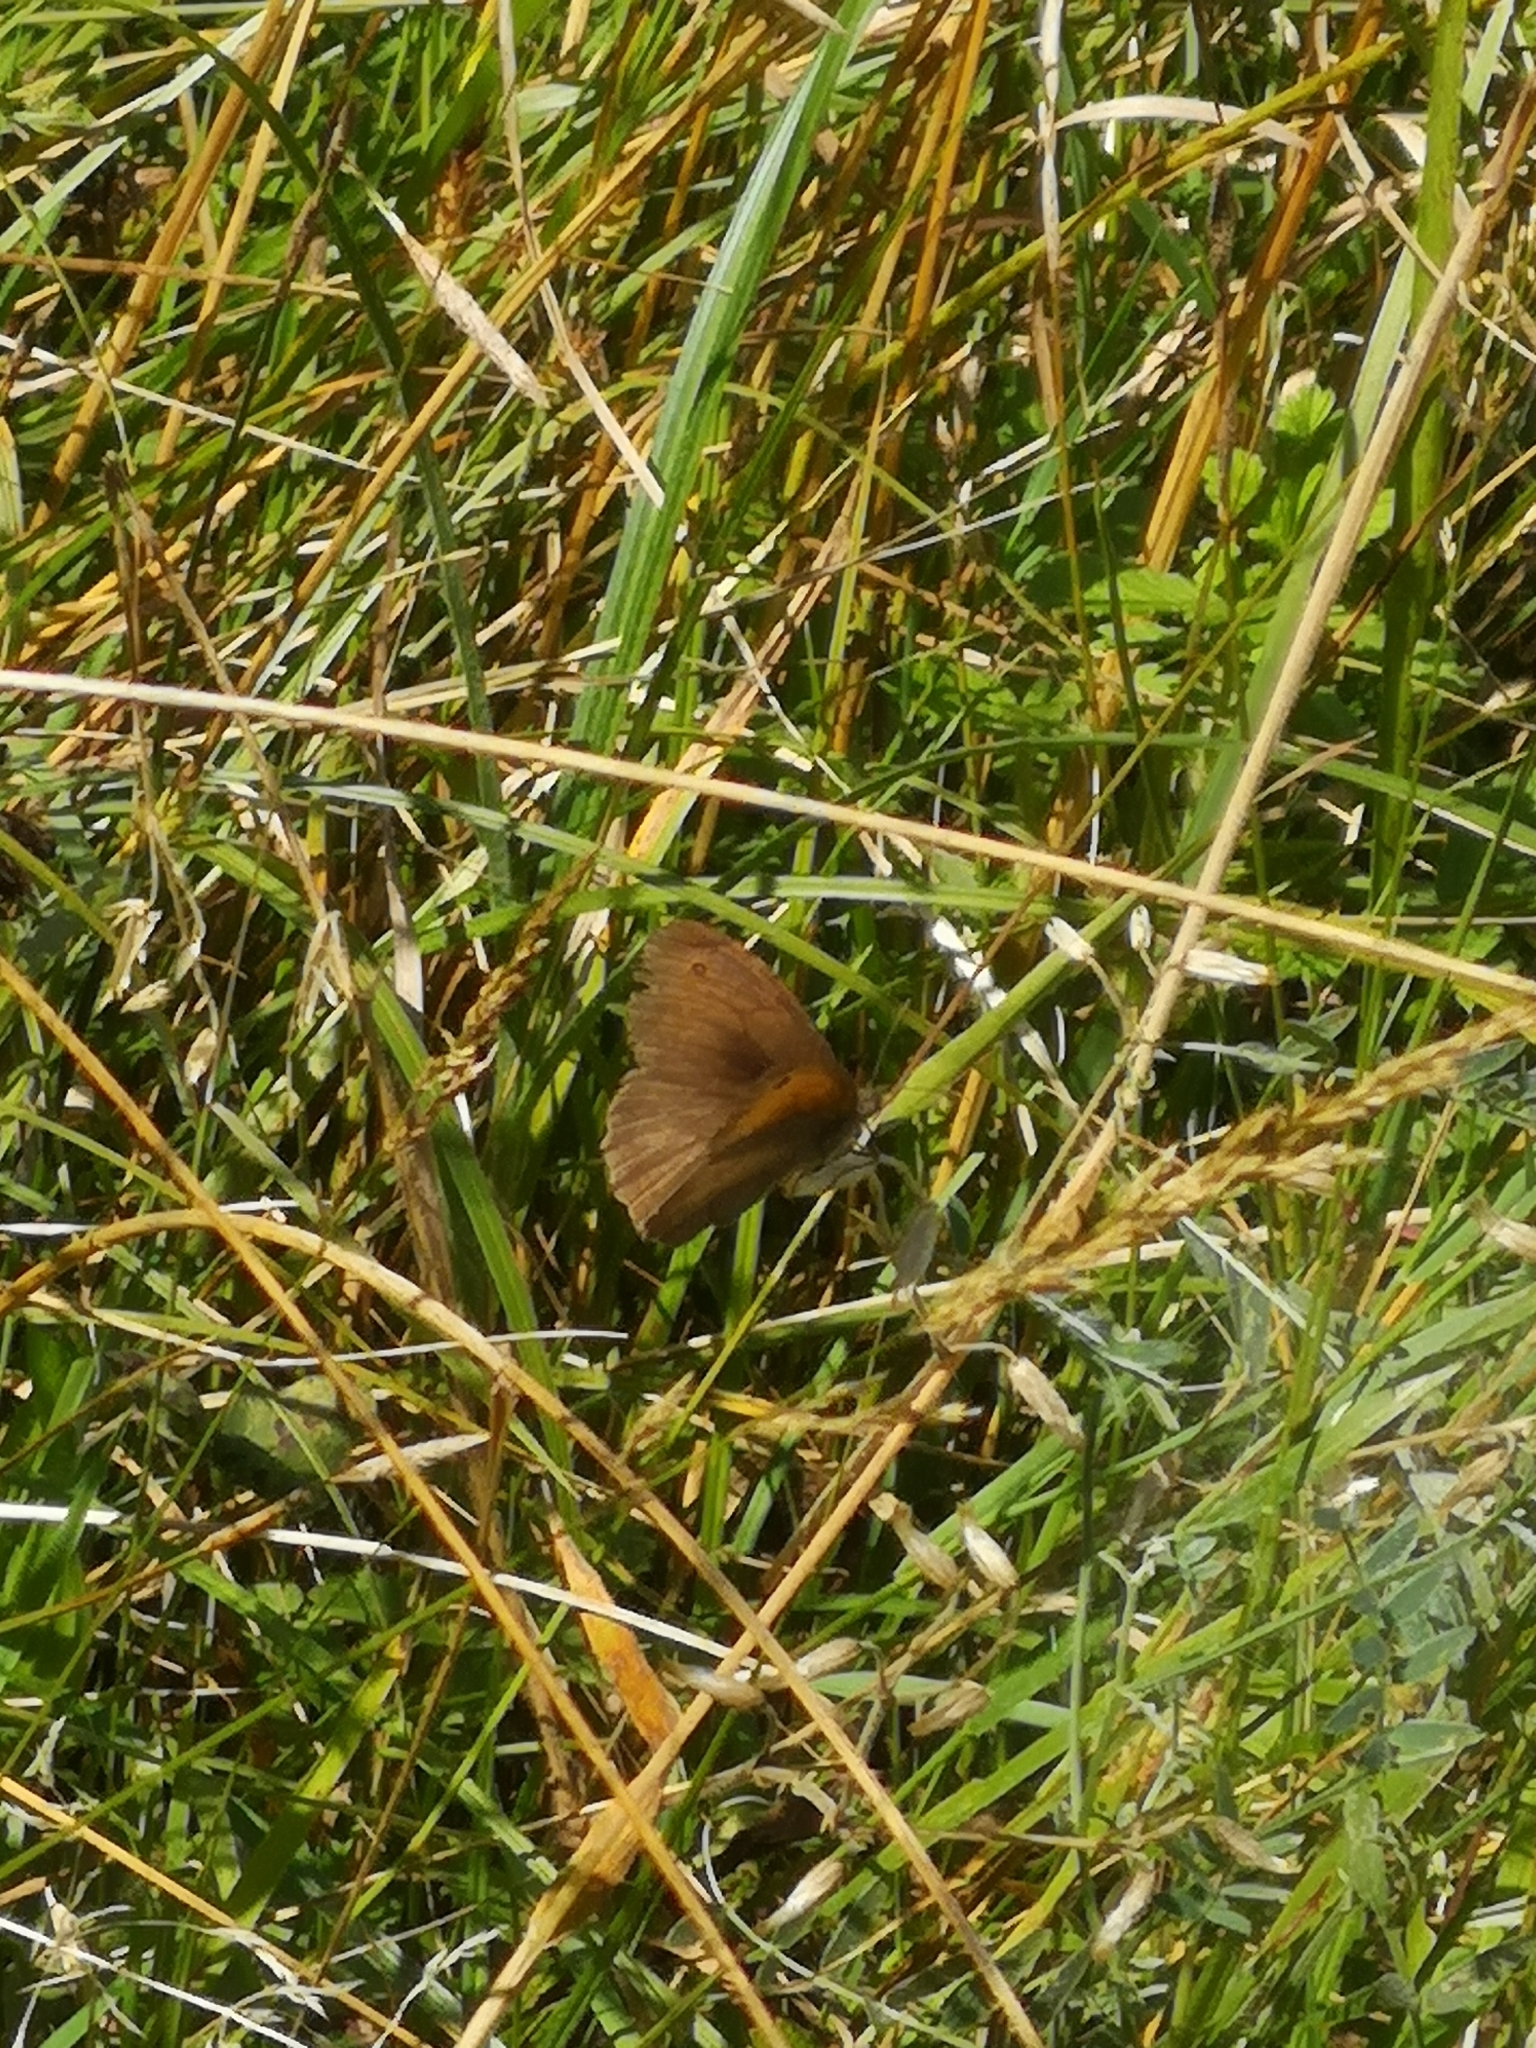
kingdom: Animalia
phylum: Arthropoda
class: Insecta
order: Lepidoptera
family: Nymphalidae
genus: Maniola
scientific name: Maniola jurtina
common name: Meadow brown
